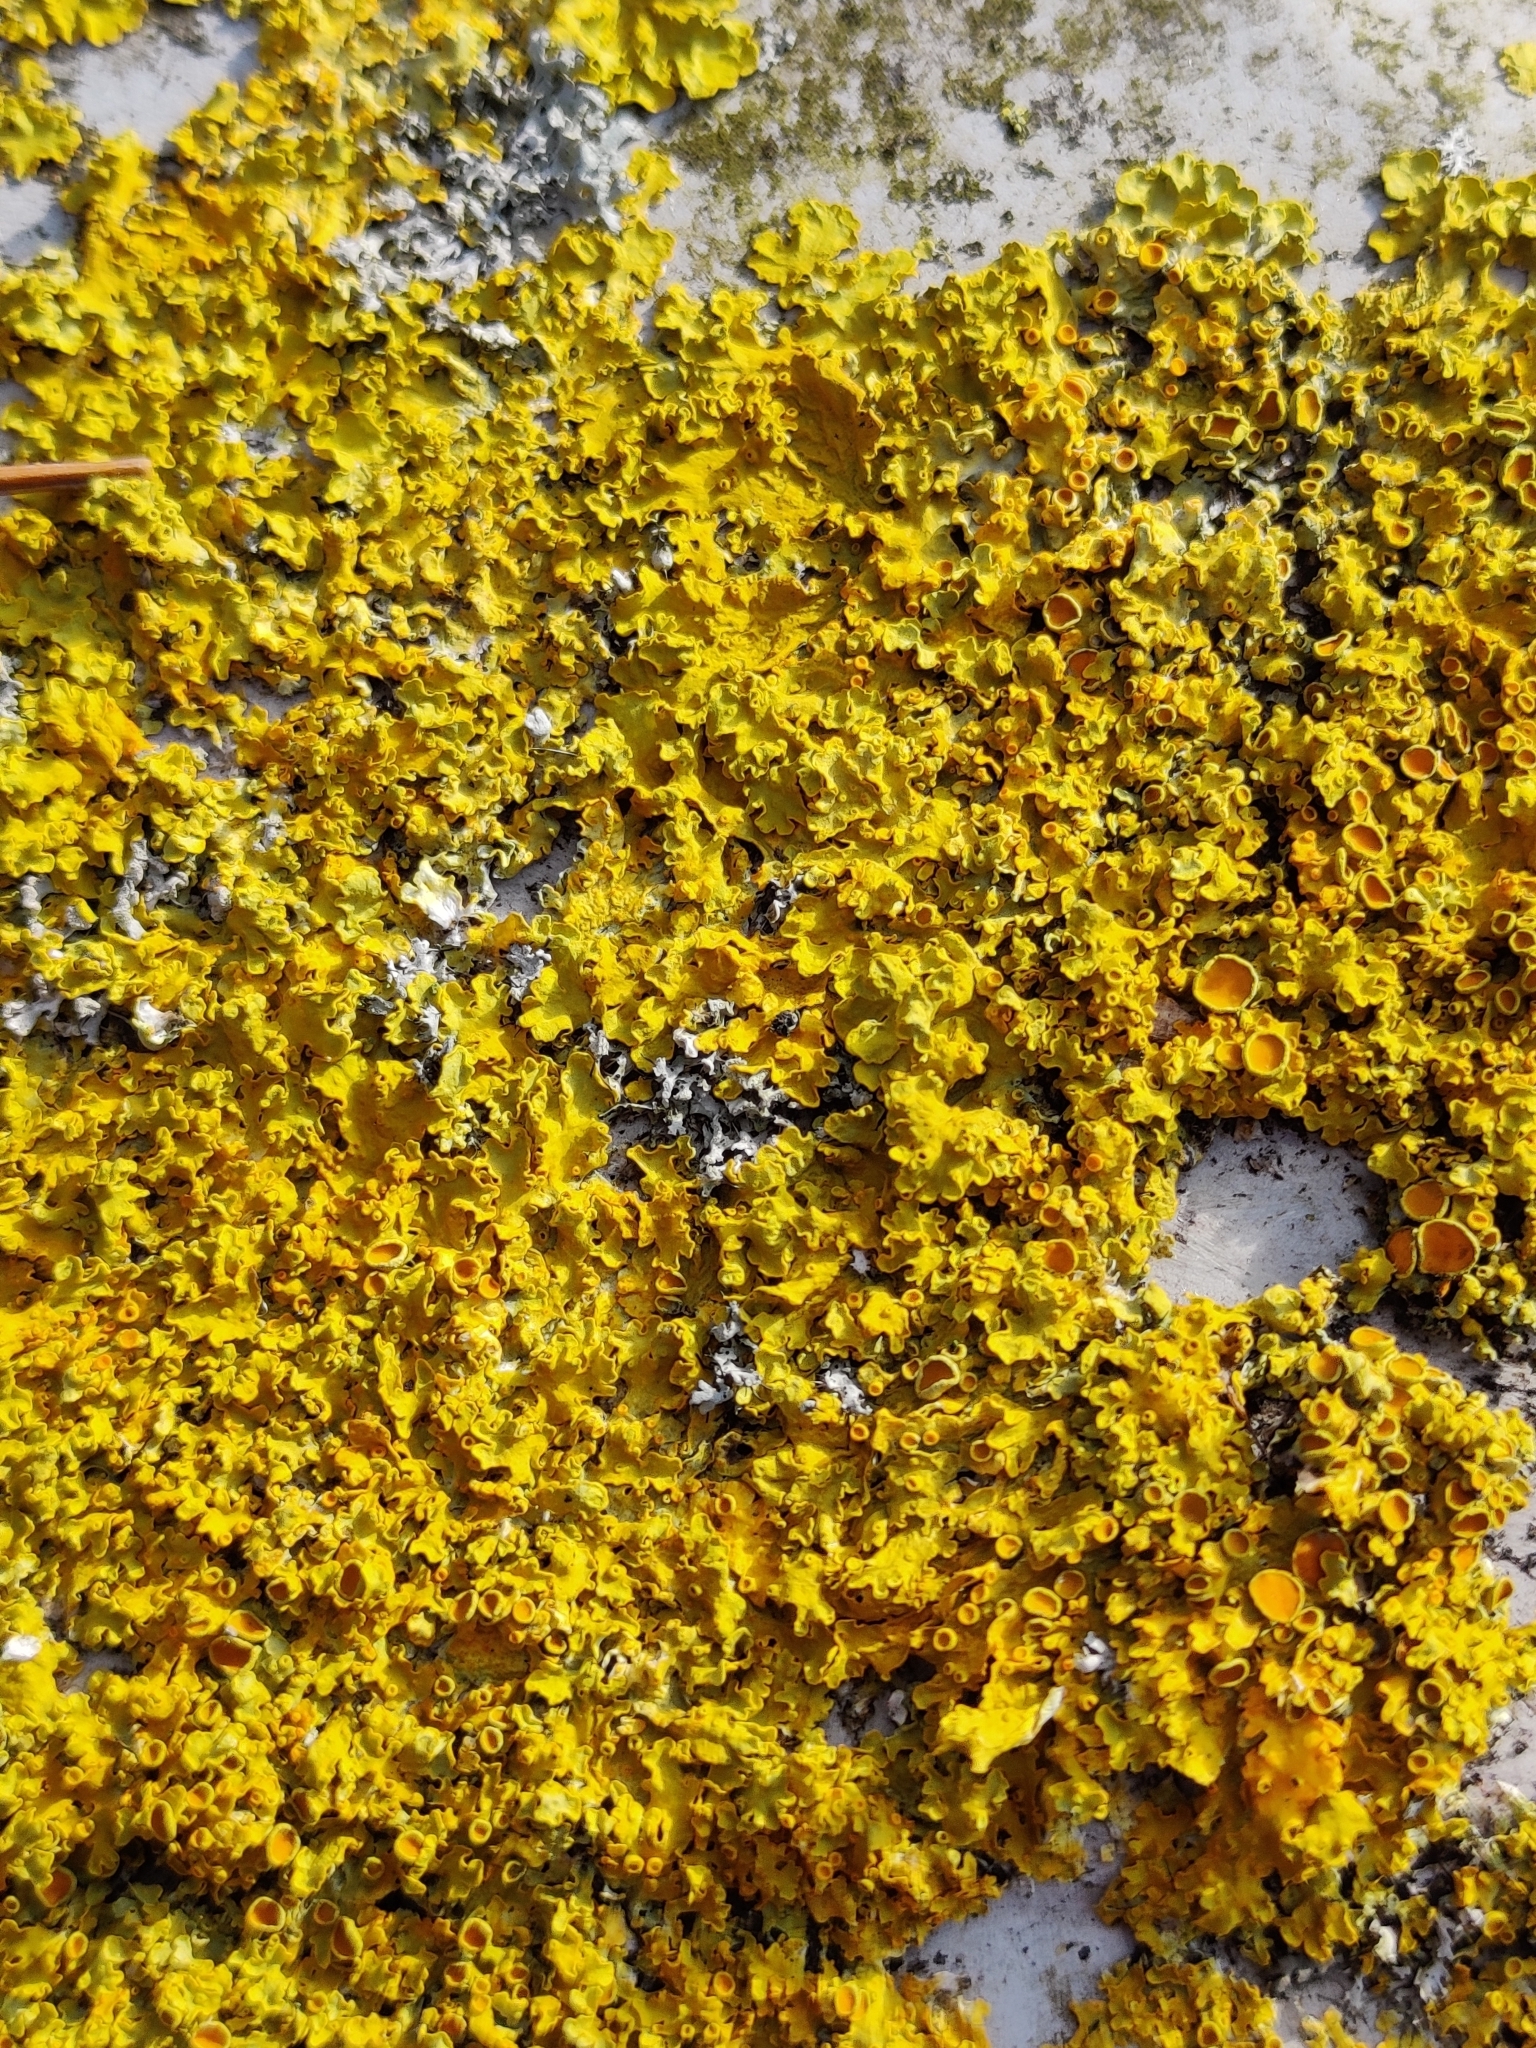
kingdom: Fungi
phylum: Ascomycota
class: Lecanoromycetes
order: Teloschistales
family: Teloschistaceae
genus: Xanthoria
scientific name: Xanthoria parietina
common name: Common orange lichen
